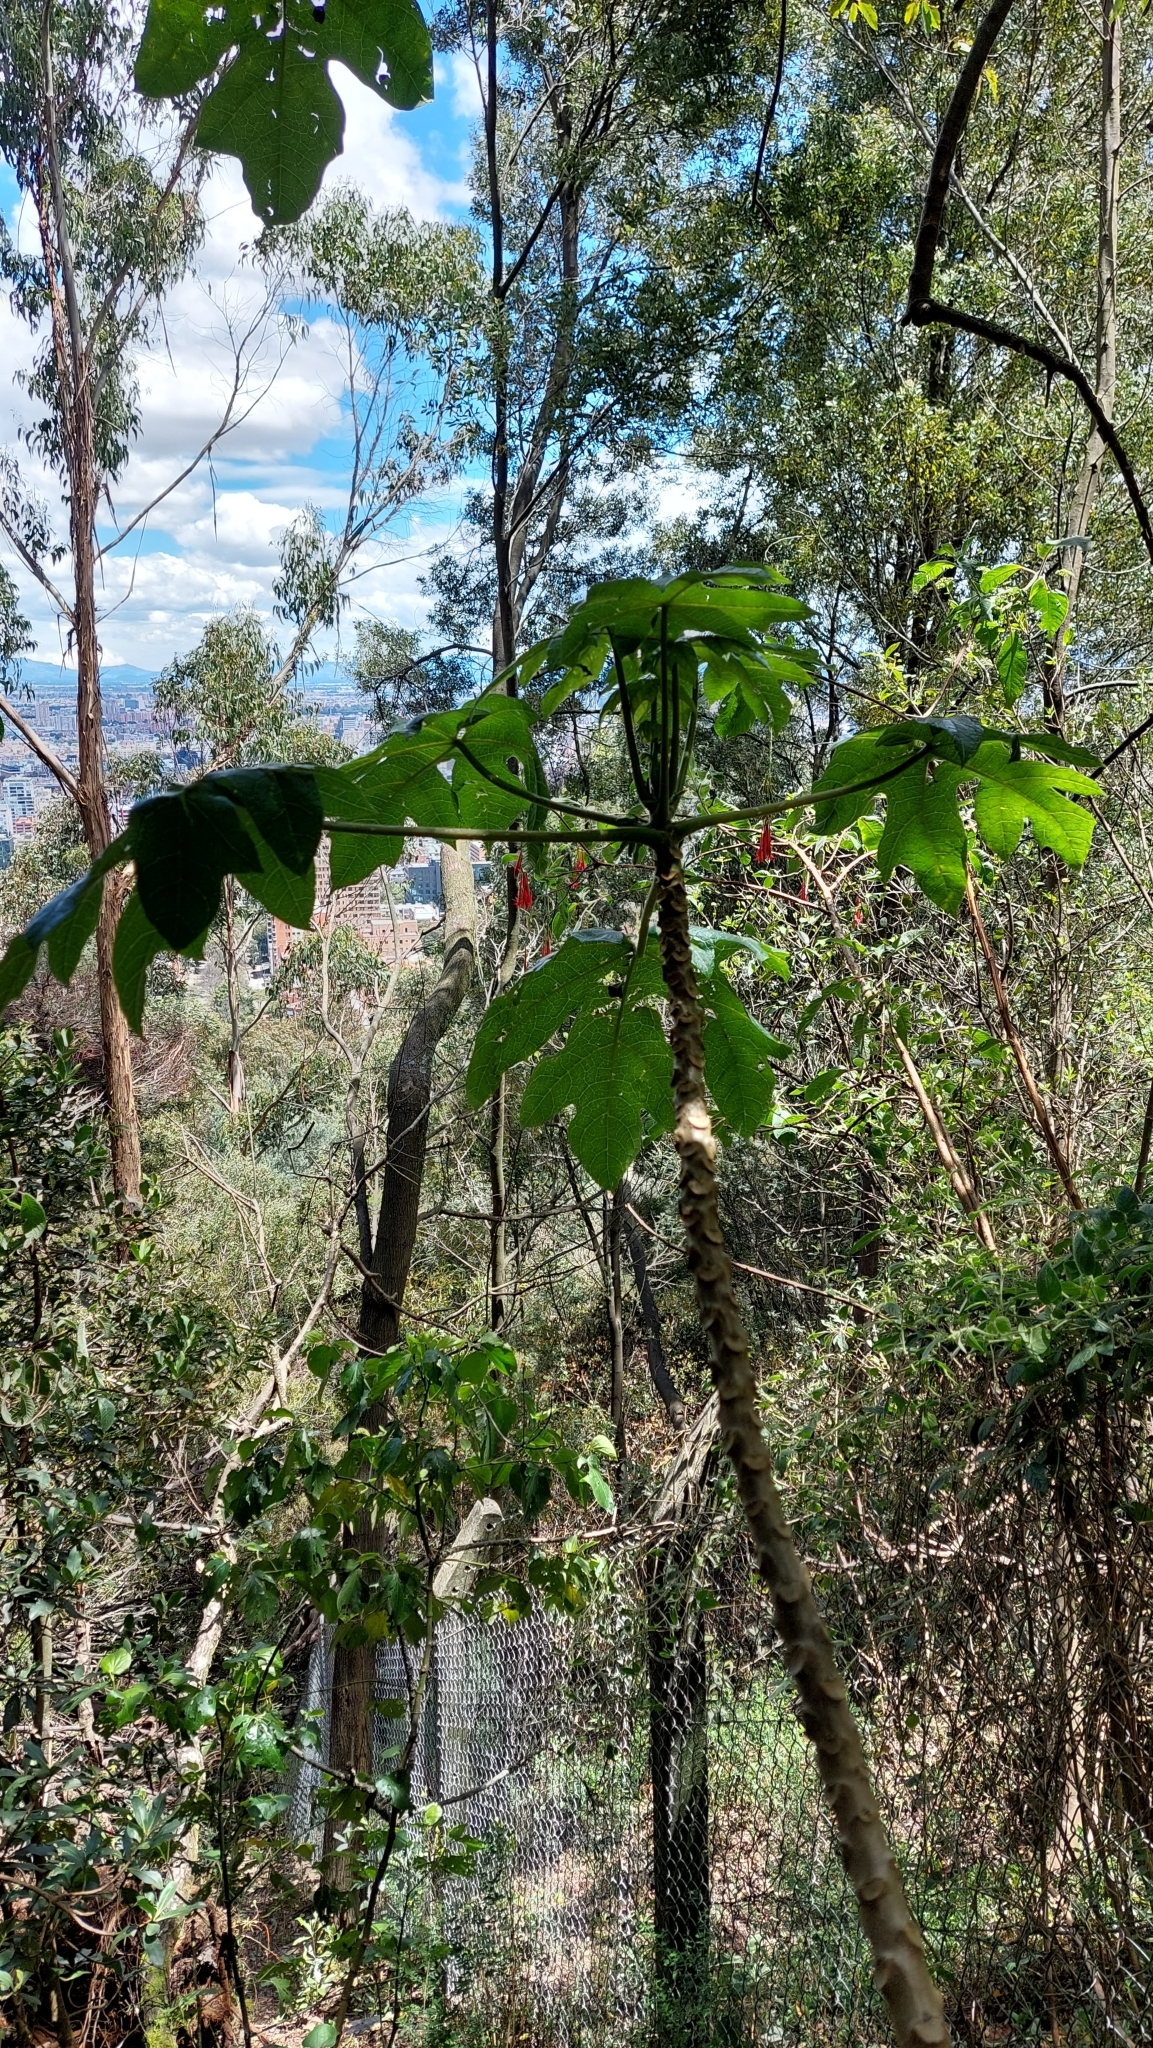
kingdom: Plantae
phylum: Tracheophyta
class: Magnoliopsida
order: Brassicales
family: Caricaceae
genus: Vasconcellea
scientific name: Vasconcellea pubescens
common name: Mountain papaya
